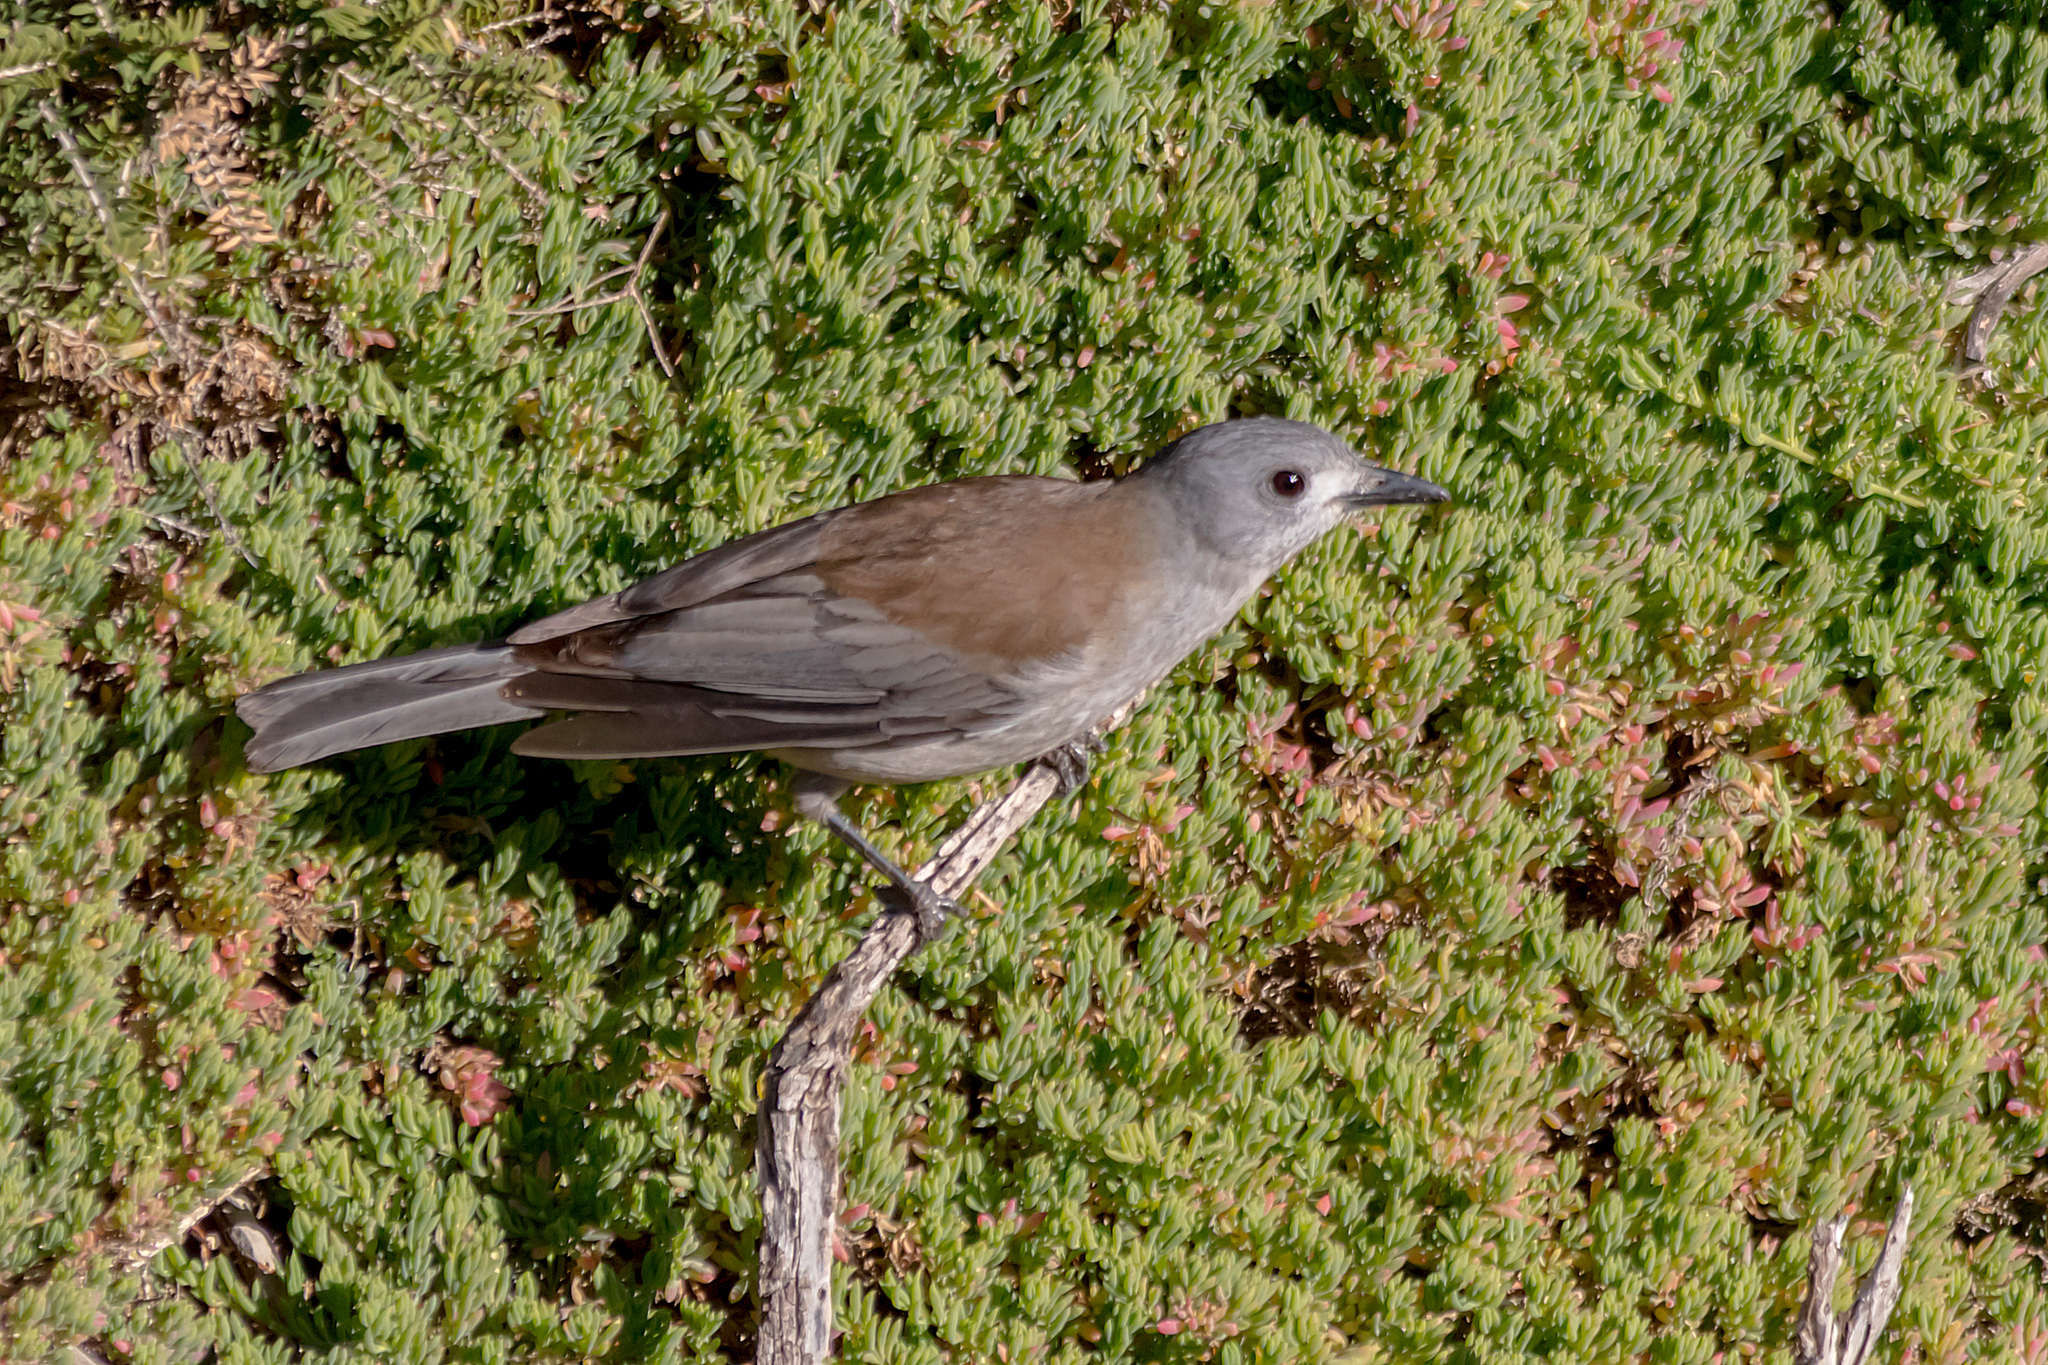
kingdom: Animalia
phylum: Chordata
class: Aves
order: Passeriformes
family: Pachycephalidae
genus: Colluricincla
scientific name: Colluricincla harmonica
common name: Grey shrikethrush
